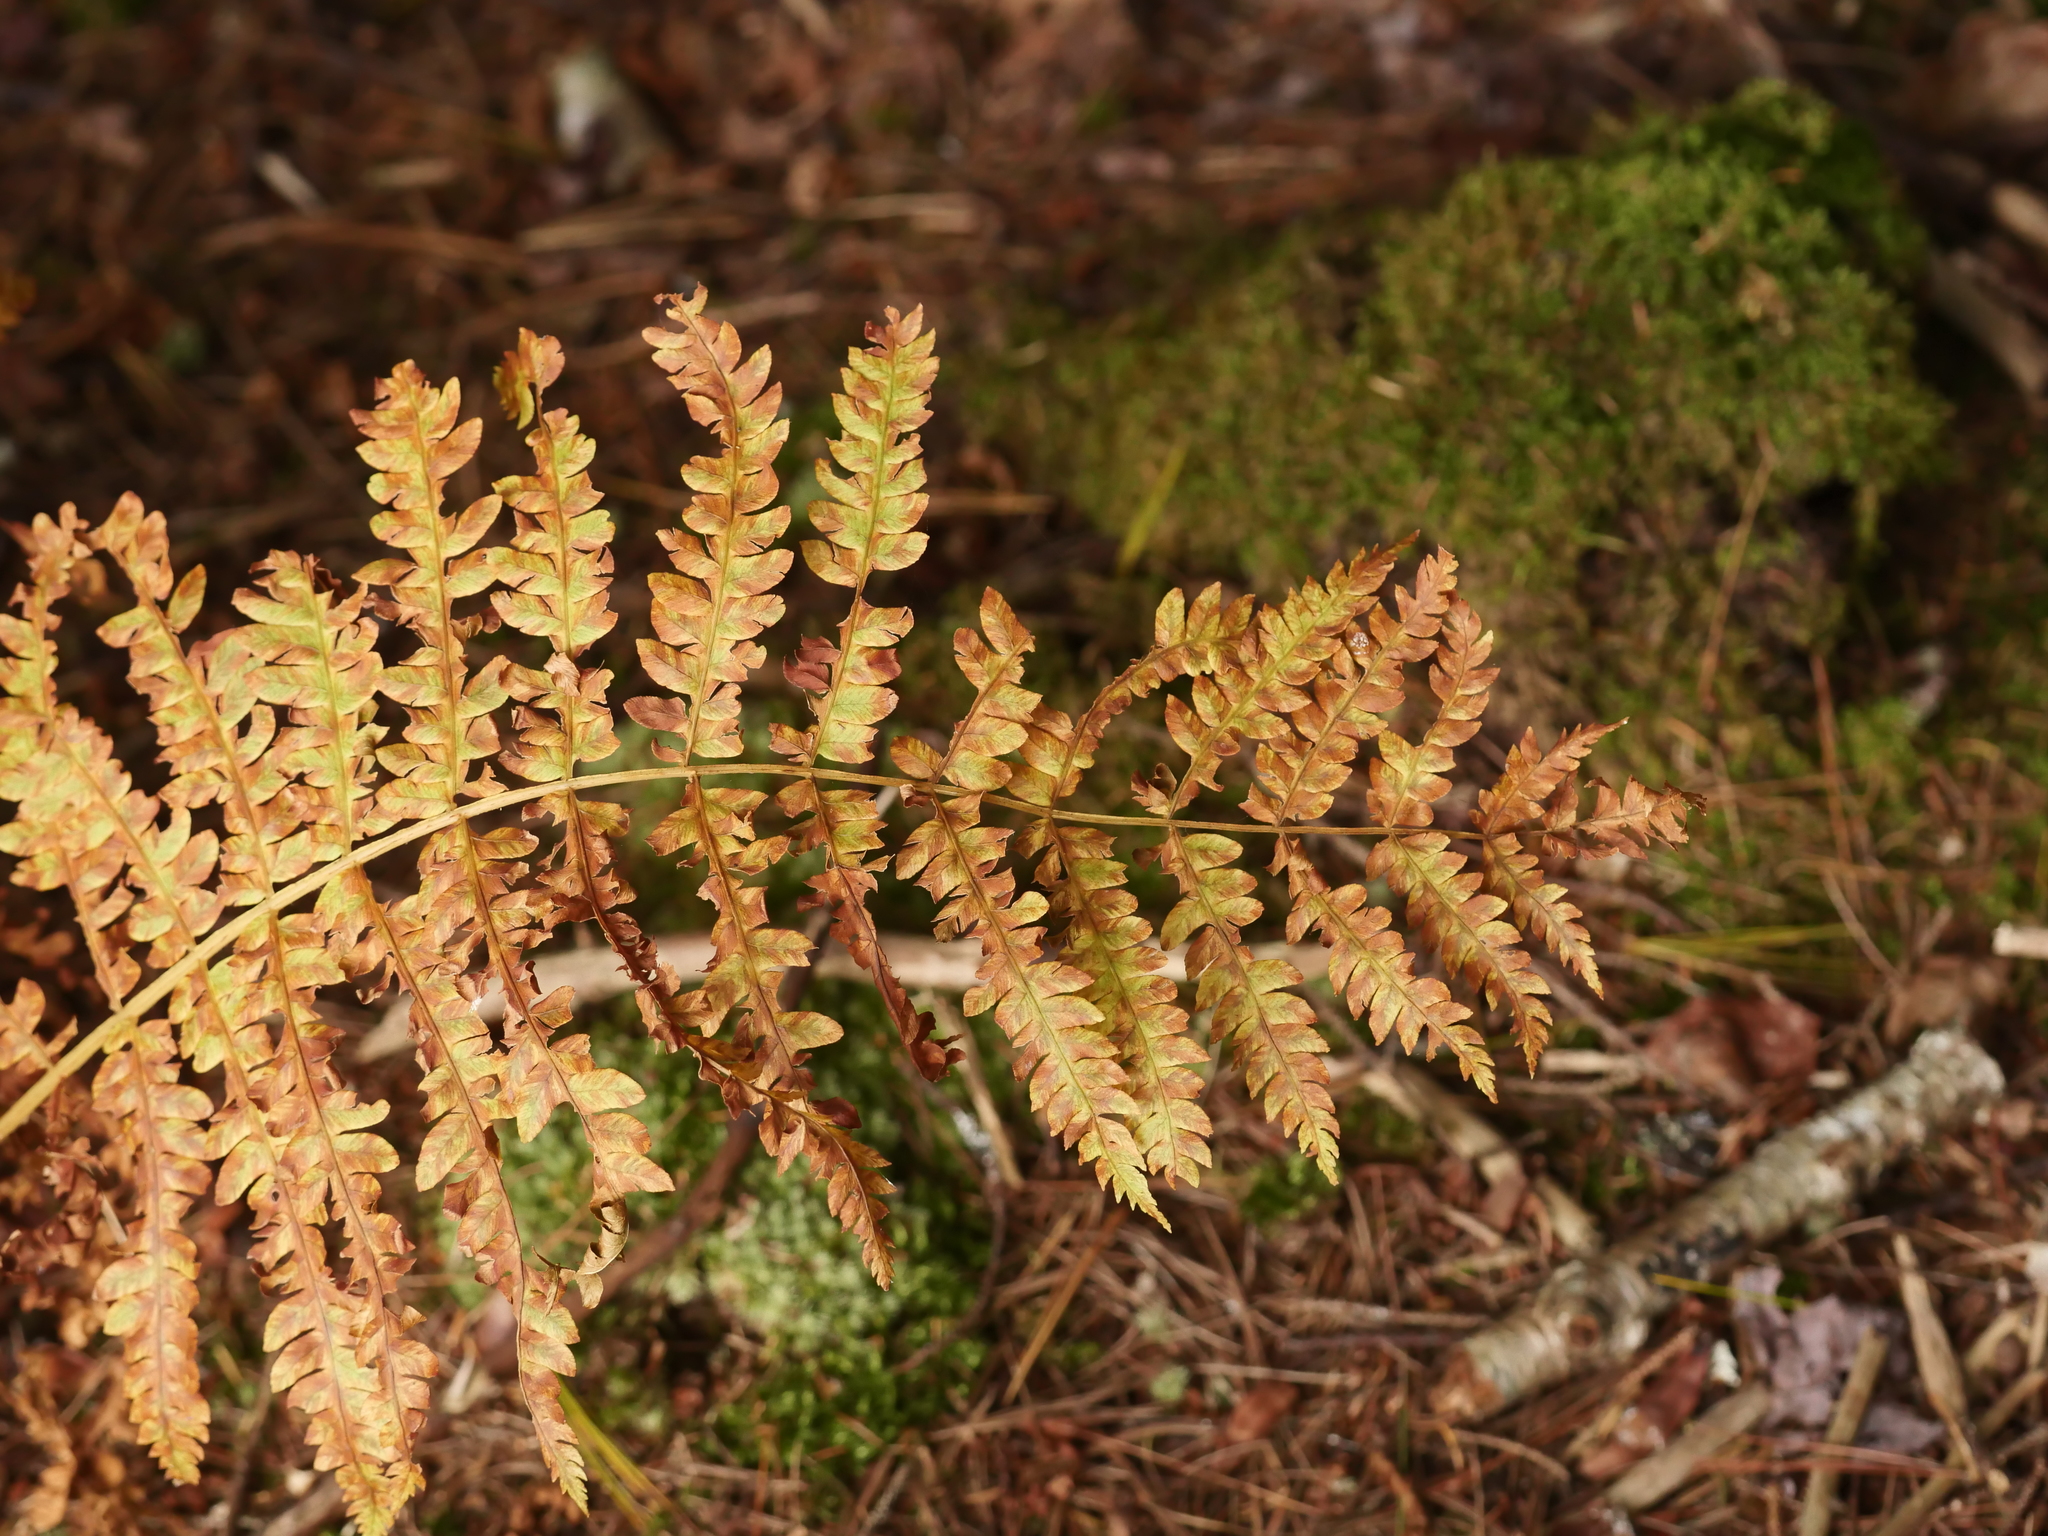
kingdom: Plantae
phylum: Tracheophyta
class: Polypodiopsida
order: Osmundales
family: Osmundaceae
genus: Osmundastrum
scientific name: Osmundastrum cinnamomeum
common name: Cinnamon fern
